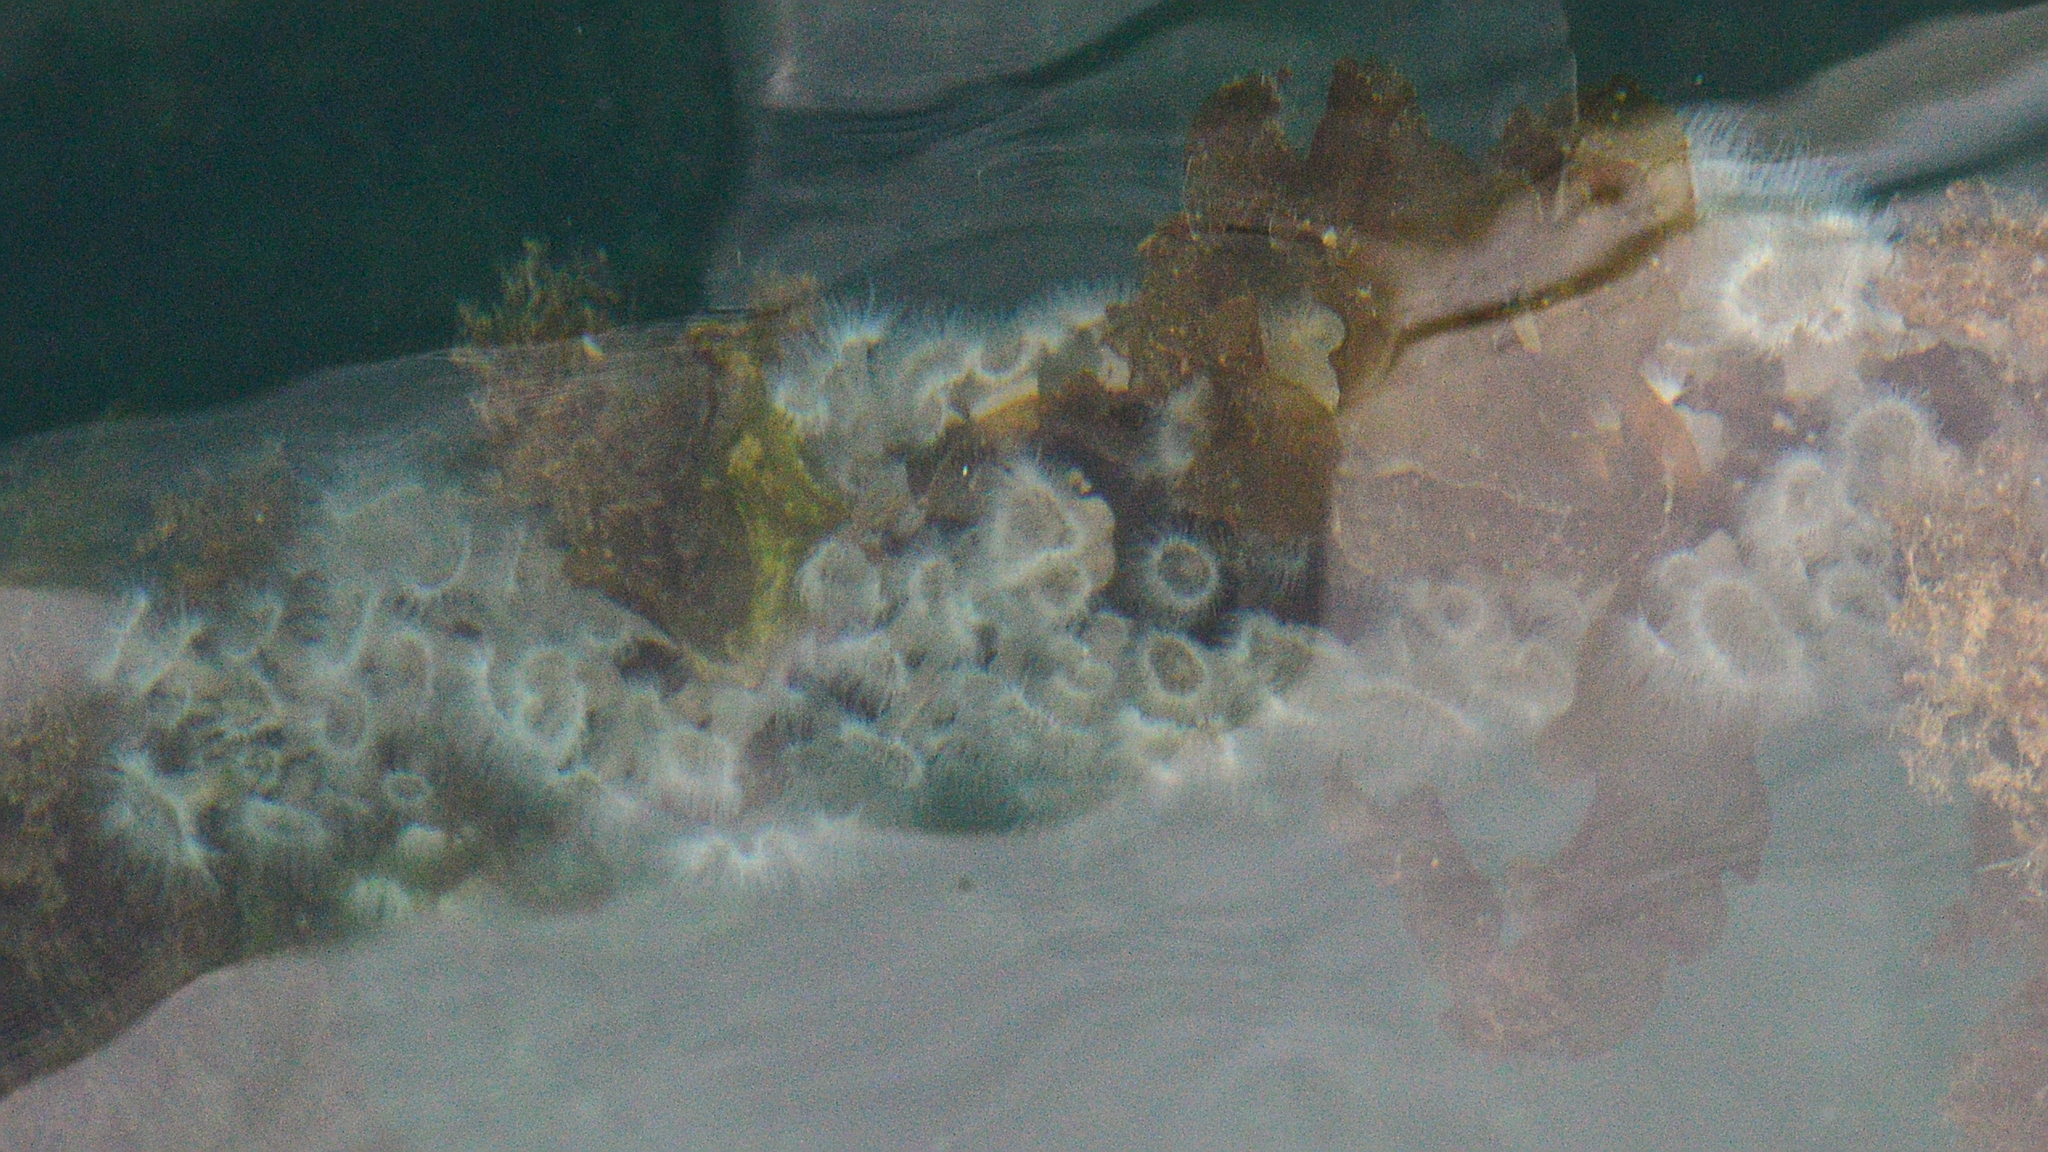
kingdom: Animalia
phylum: Cnidaria
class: Anthozoa
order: Actiniaria
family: Metridiidae
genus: Metridium
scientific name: Metridium senile
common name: Clonal plumose anemone
